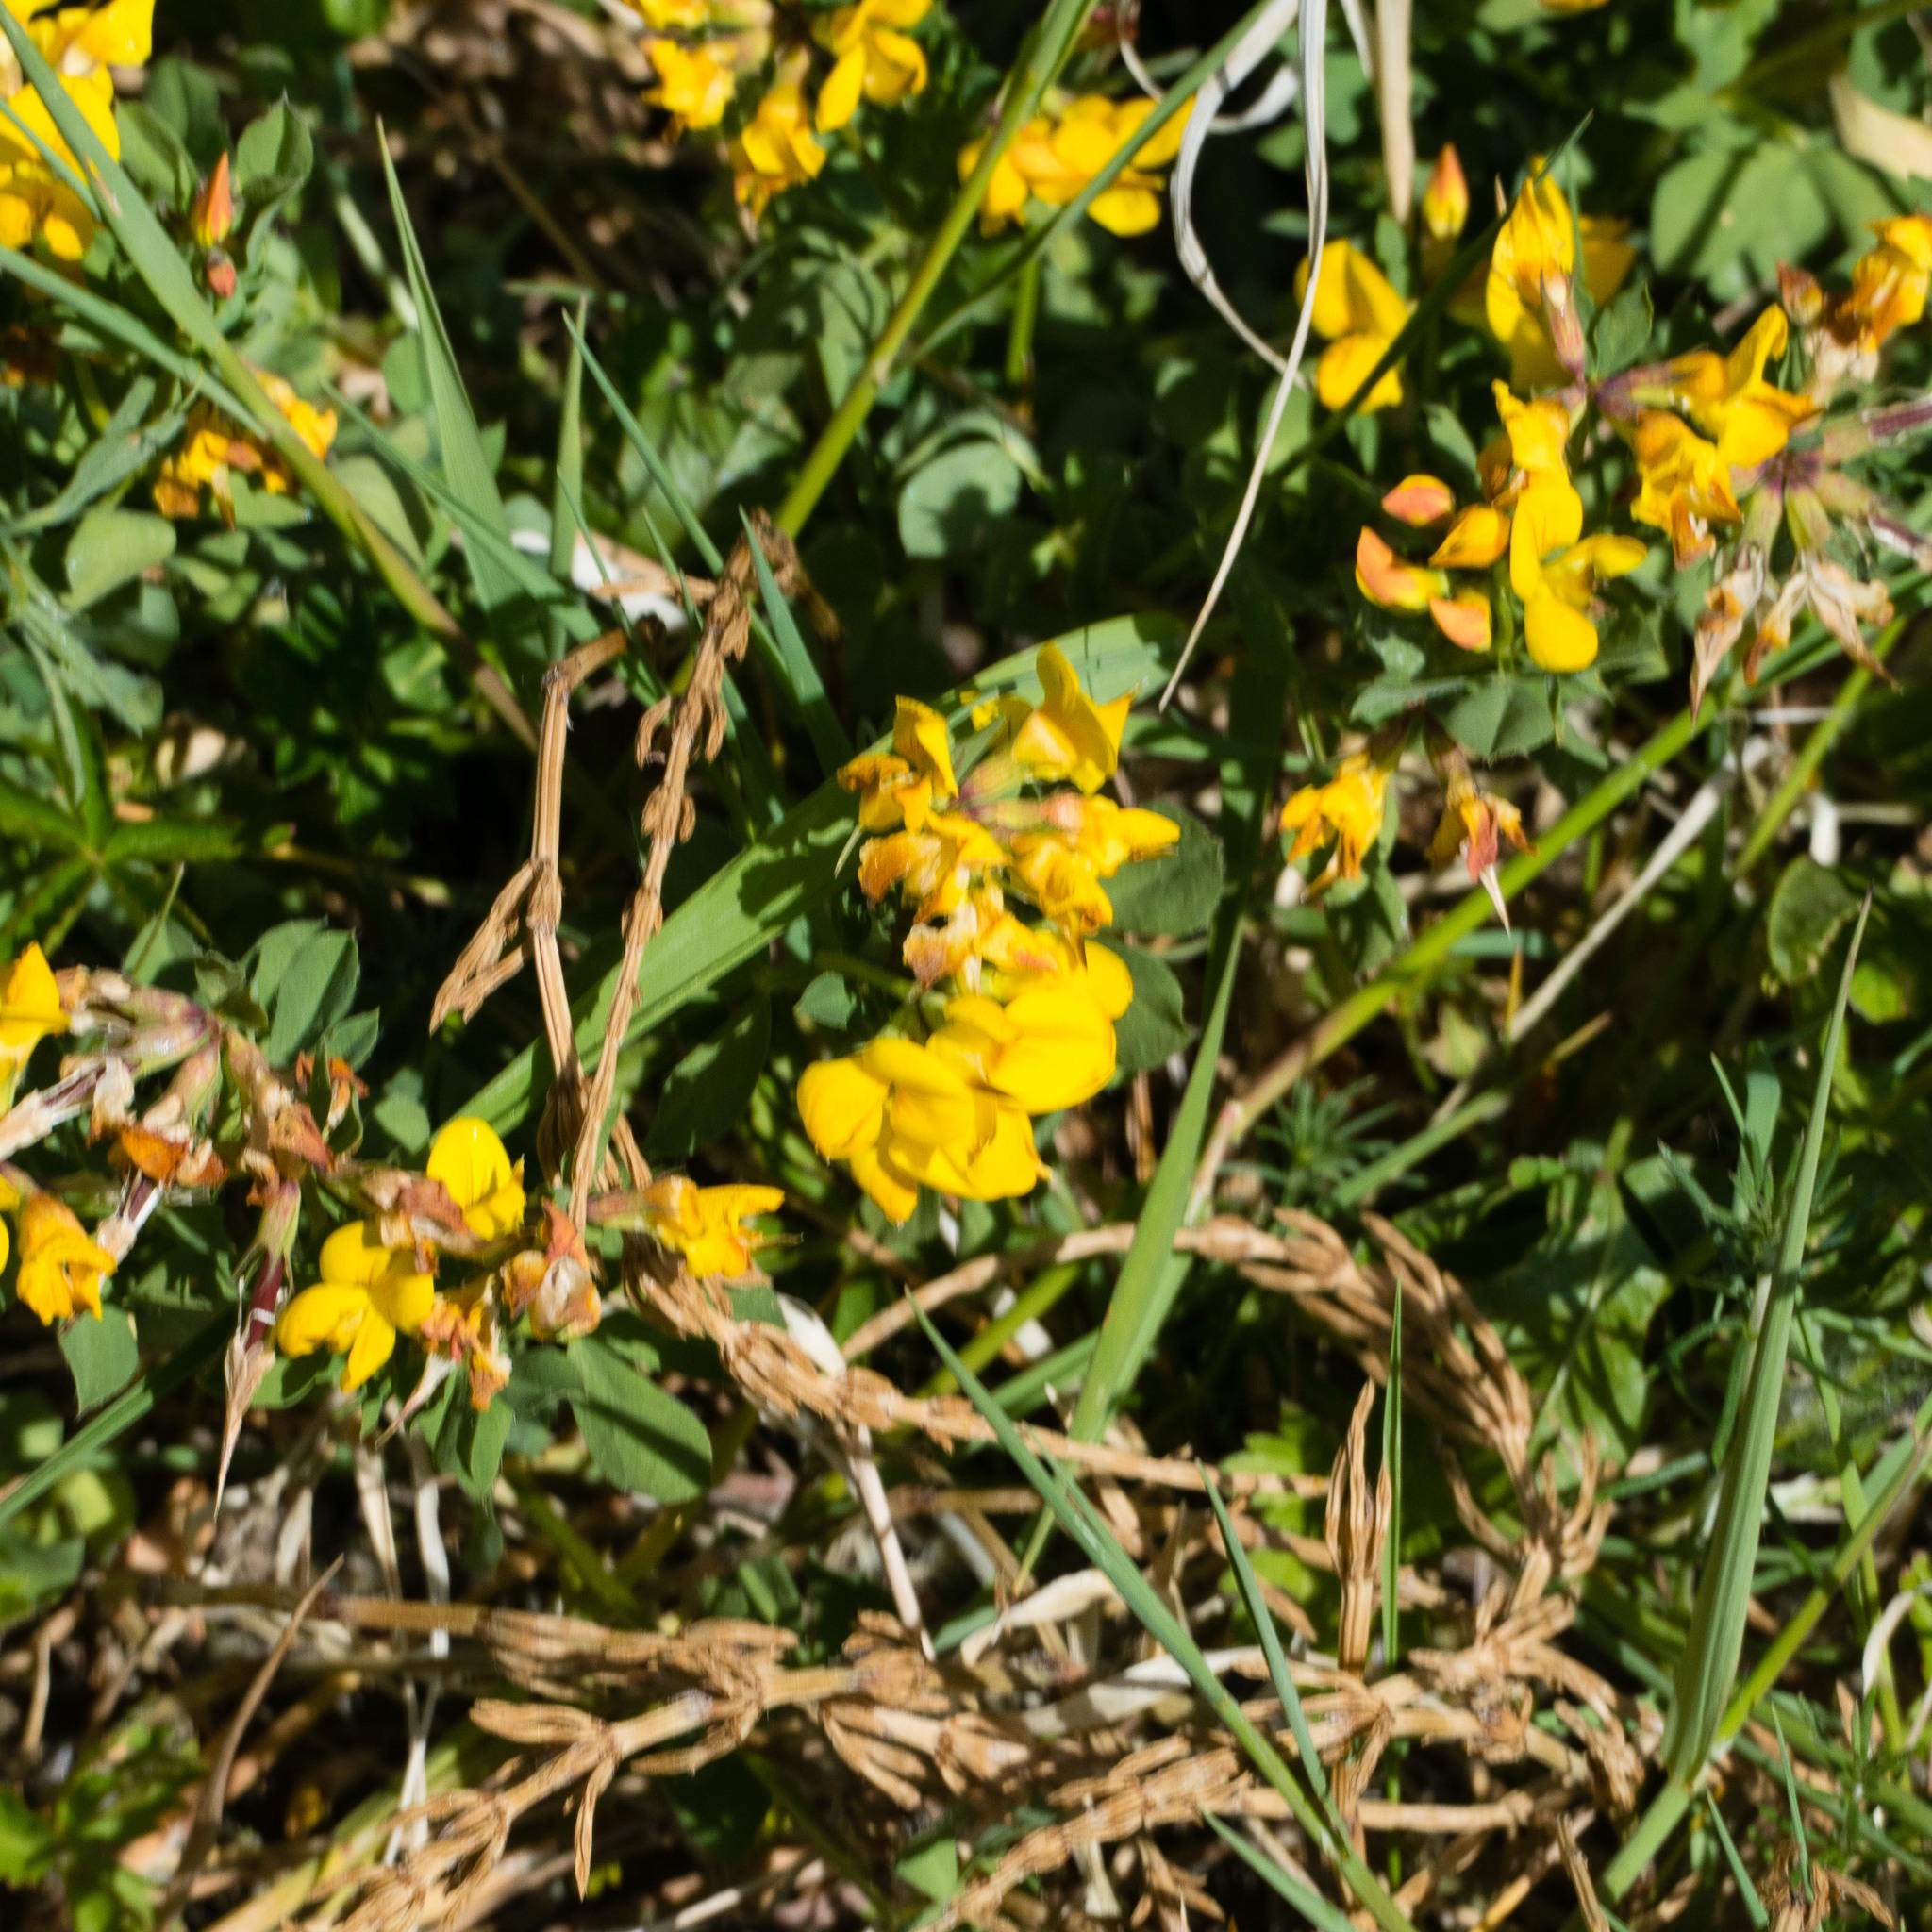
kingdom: Plantae
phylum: Tracheophyta
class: Magnoliopsida
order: Fabales
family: Fabaceae
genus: Lotus
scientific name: Lotus corniculatus
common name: Common bird's-foot-trefoil
